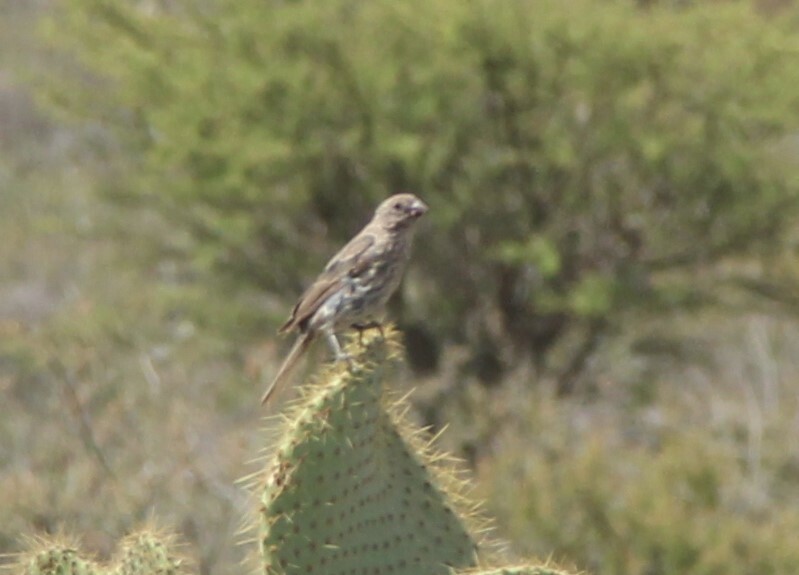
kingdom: Animalia
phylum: Chordata
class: Aves
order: Passeriformes
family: Fringillidae
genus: Haemorhous
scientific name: Haemorhous mexicanus
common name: House finch
